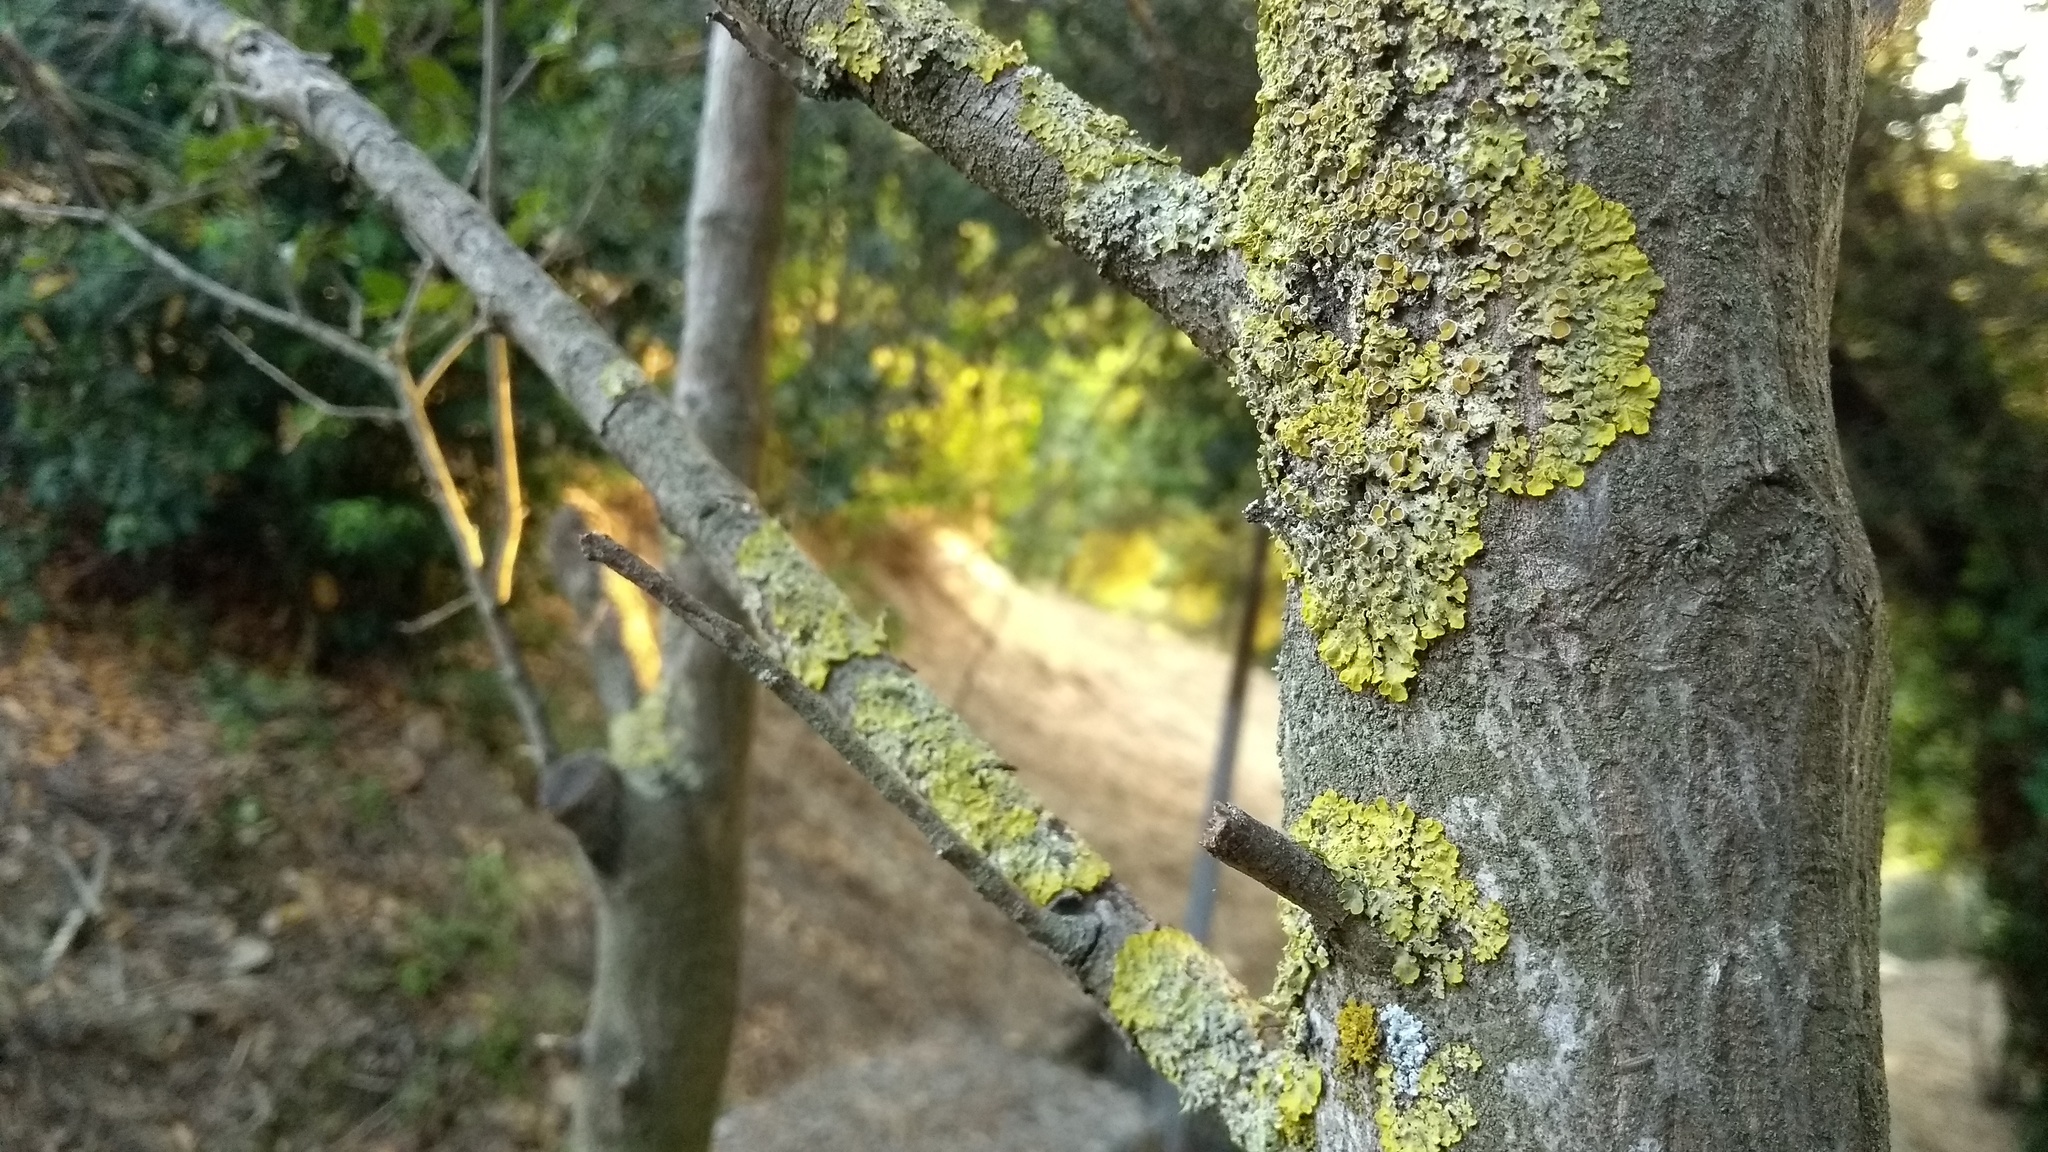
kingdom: Fungi
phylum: Ascomycota
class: Lecanoromycetes
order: Teloschistales
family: Teloschistaceae
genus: Xanthoria
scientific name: Xanthoria parietina
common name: Common orange lichen
